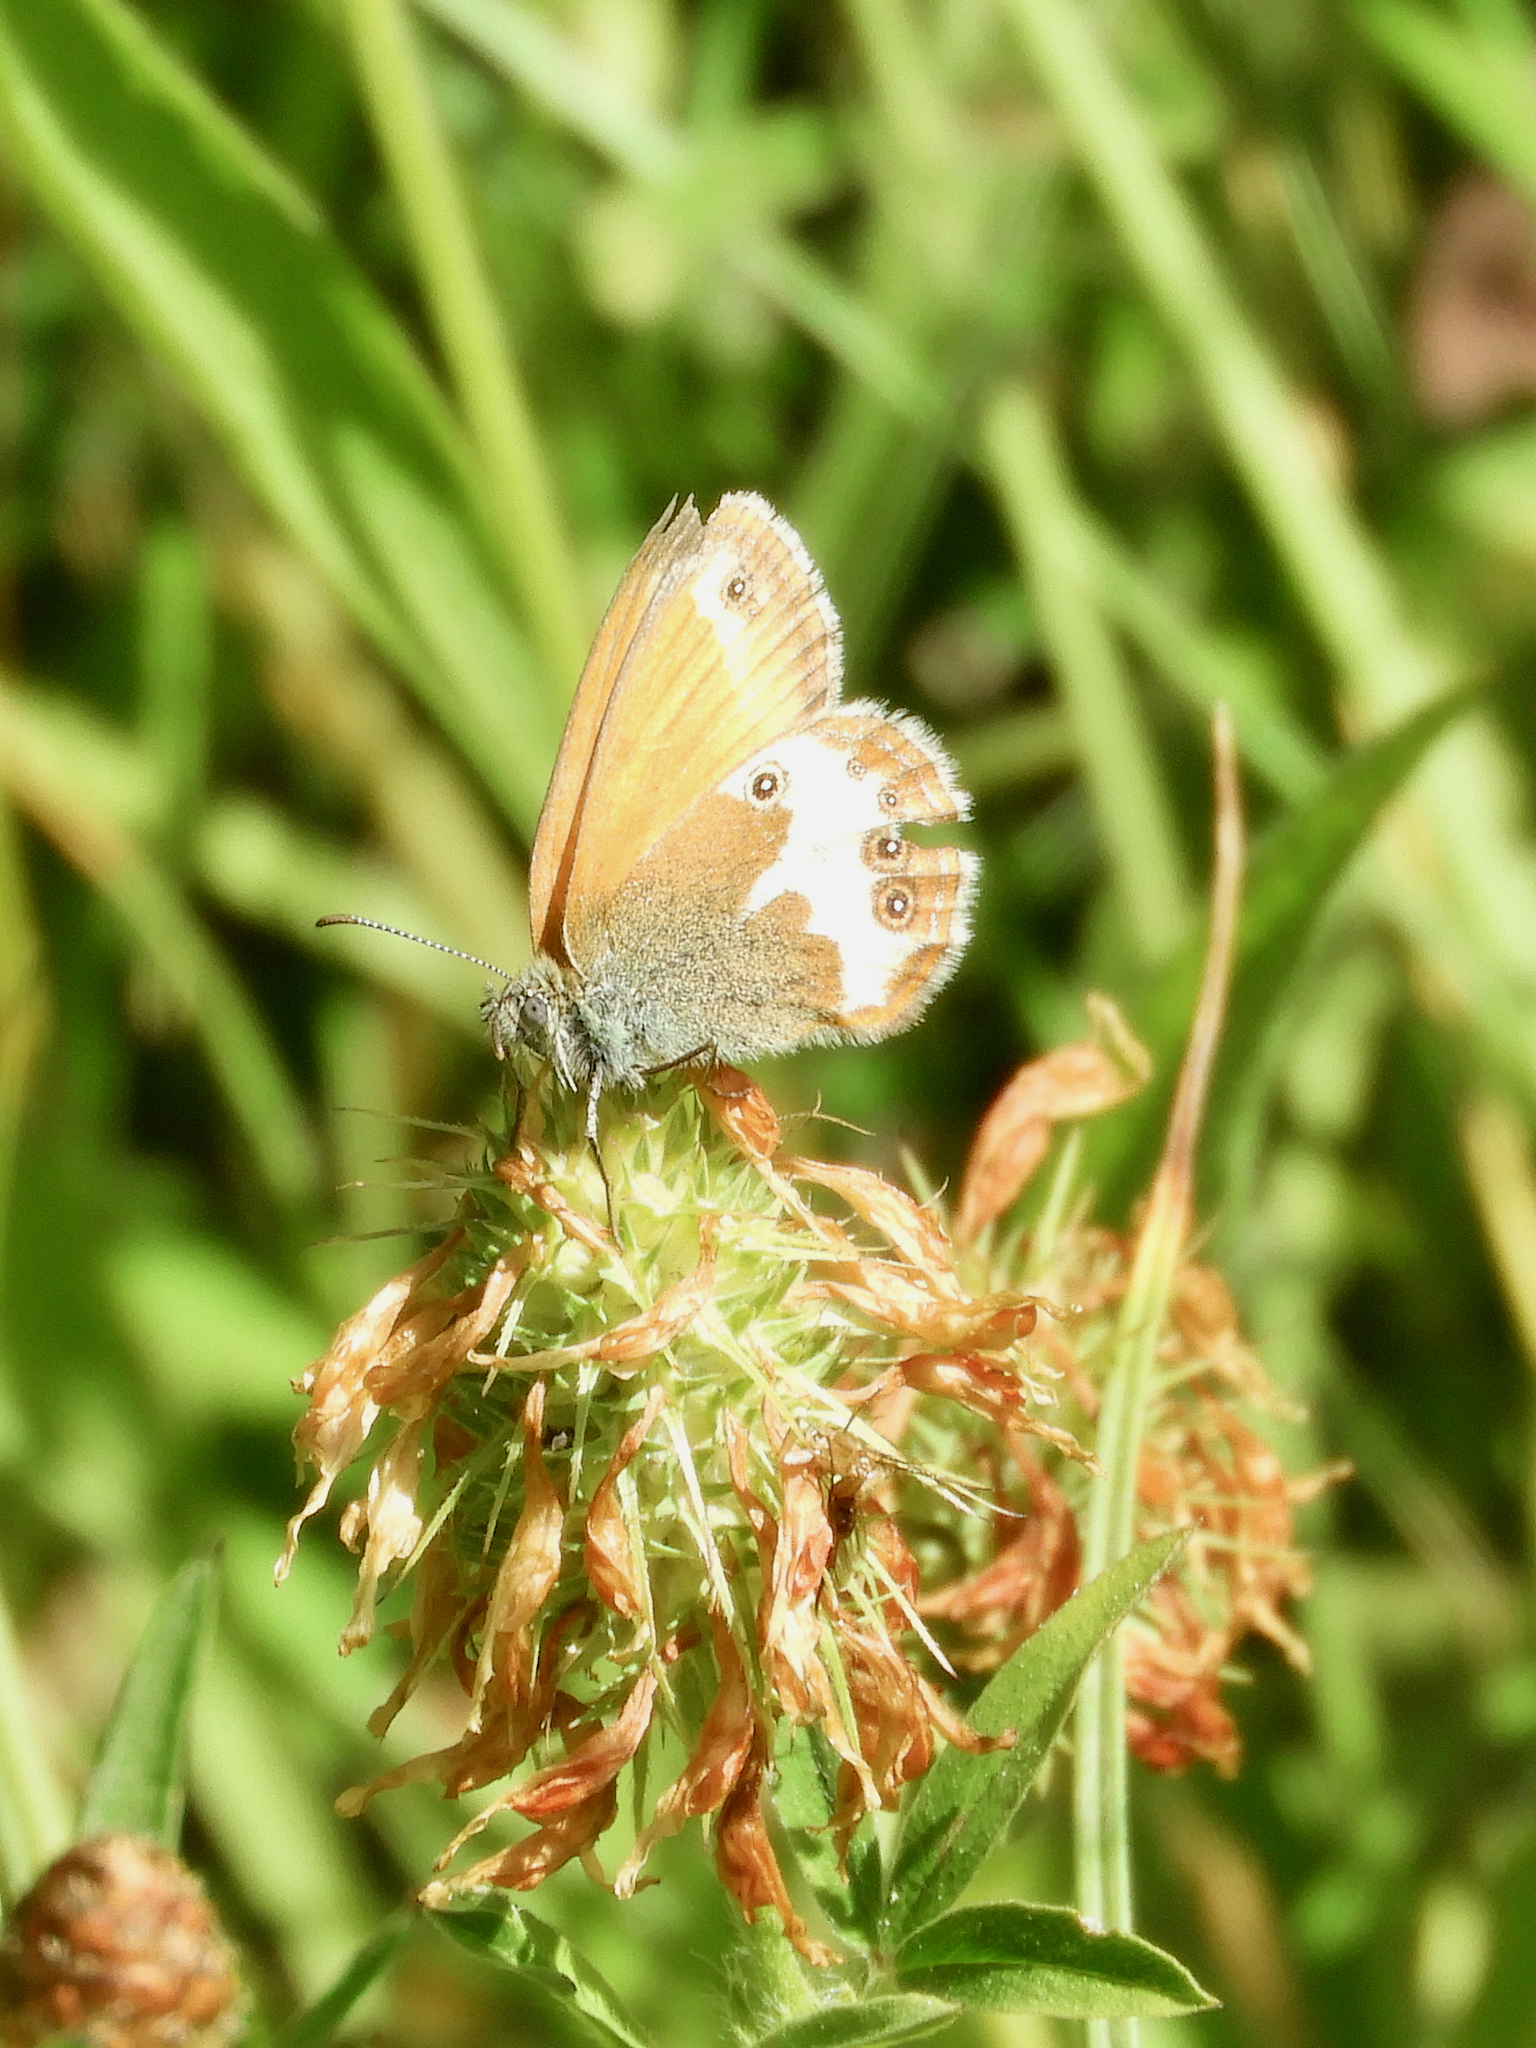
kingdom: Animalia
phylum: Arthropoda
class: Insecta
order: Lepidoptera
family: Nymphalidae
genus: Coenonympha
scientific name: Coenonympha arcania
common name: Pearly heath
